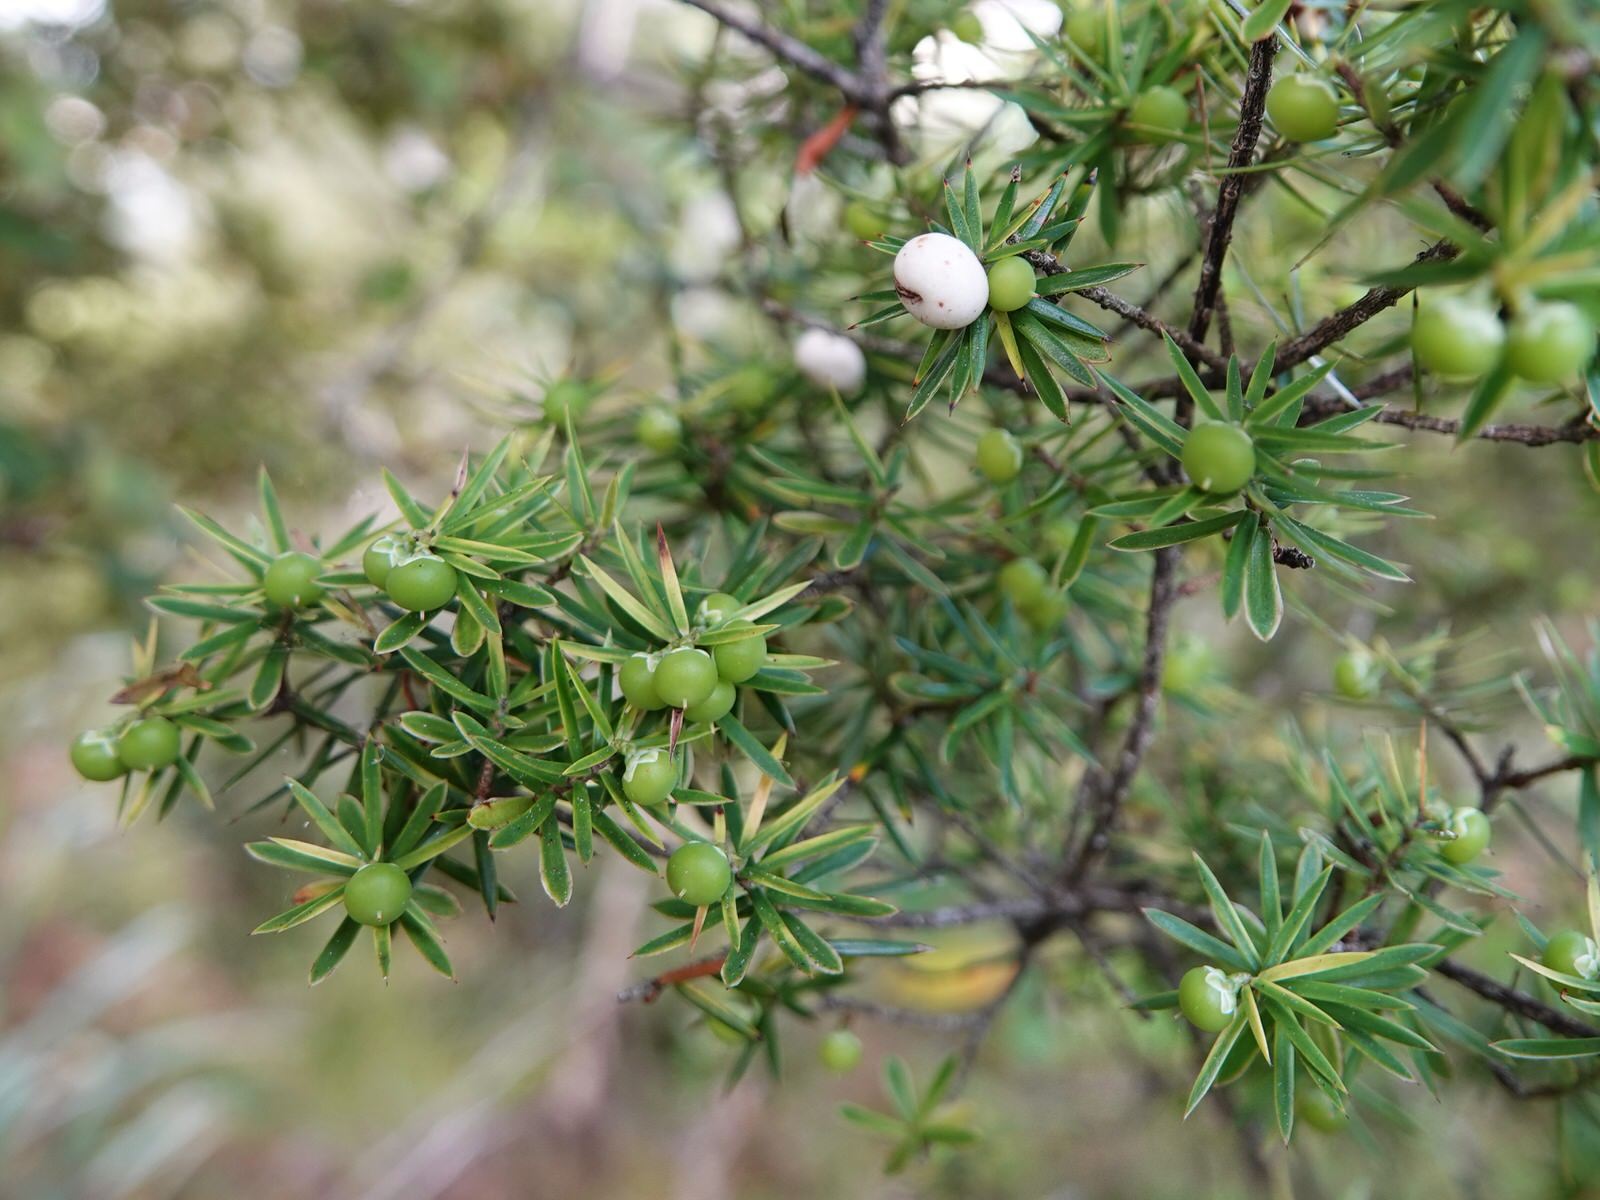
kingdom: Plantae
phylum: Tracheophyta
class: Magnoliopsida
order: Ericales
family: Ericaceae
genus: Leptecophylla
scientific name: Leptecophylla juniperina
